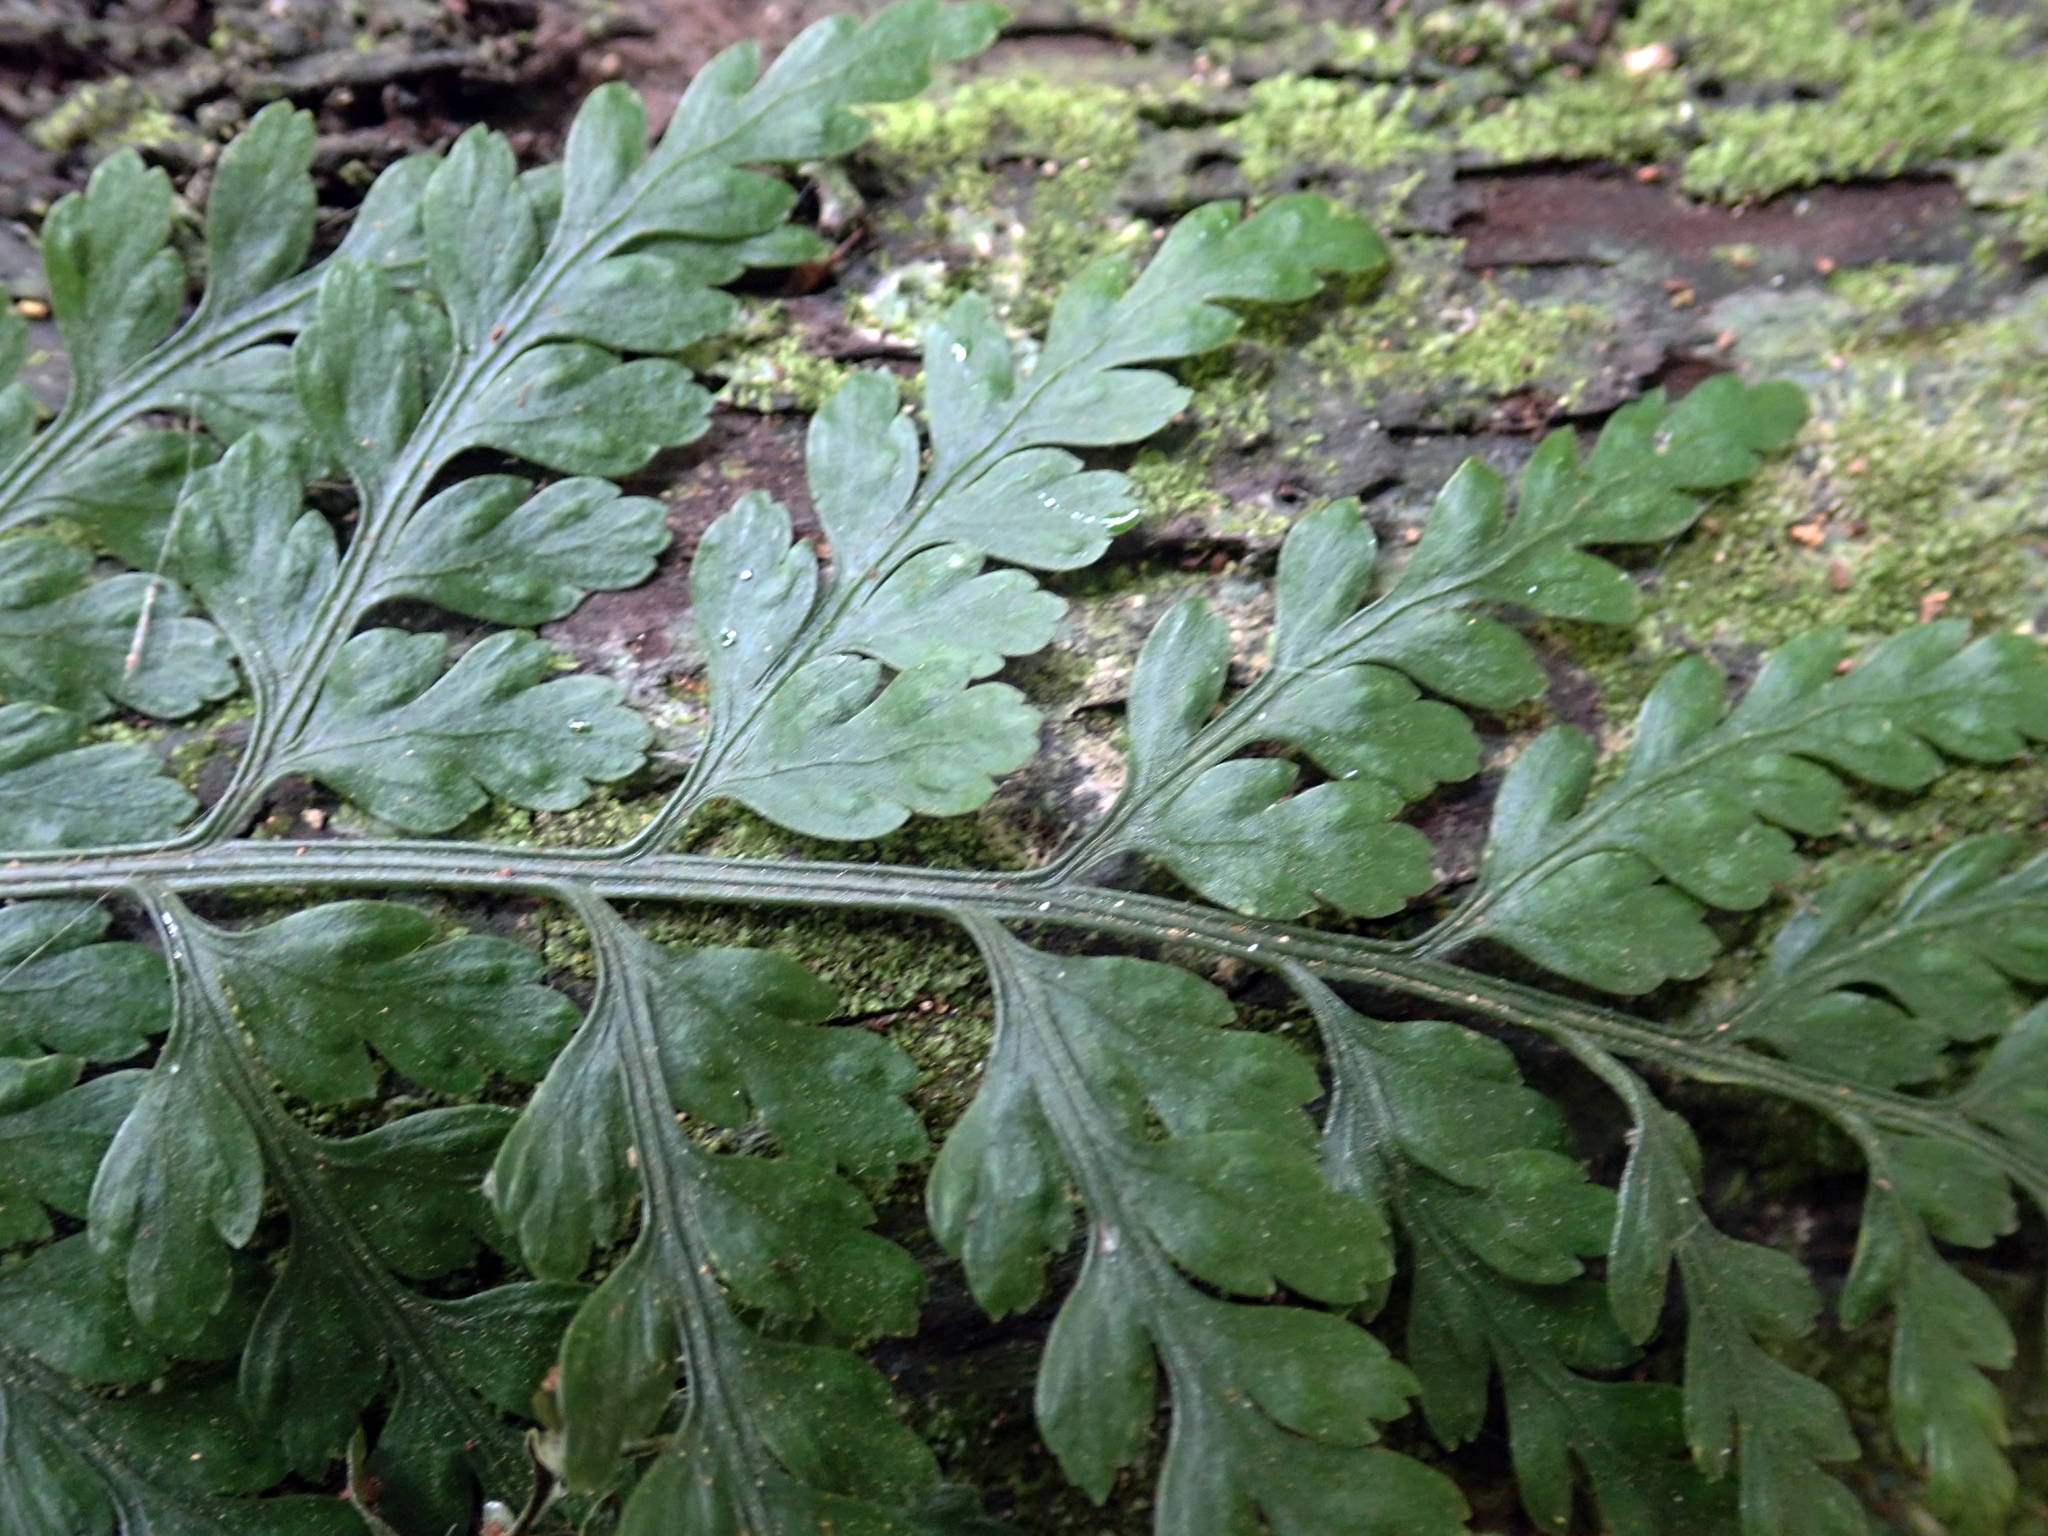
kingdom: Plantae
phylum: Tracheophyta
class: Polypodiopsida
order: Polypodiales
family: Aspleniaceae
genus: Asplenium
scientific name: Asplenium
